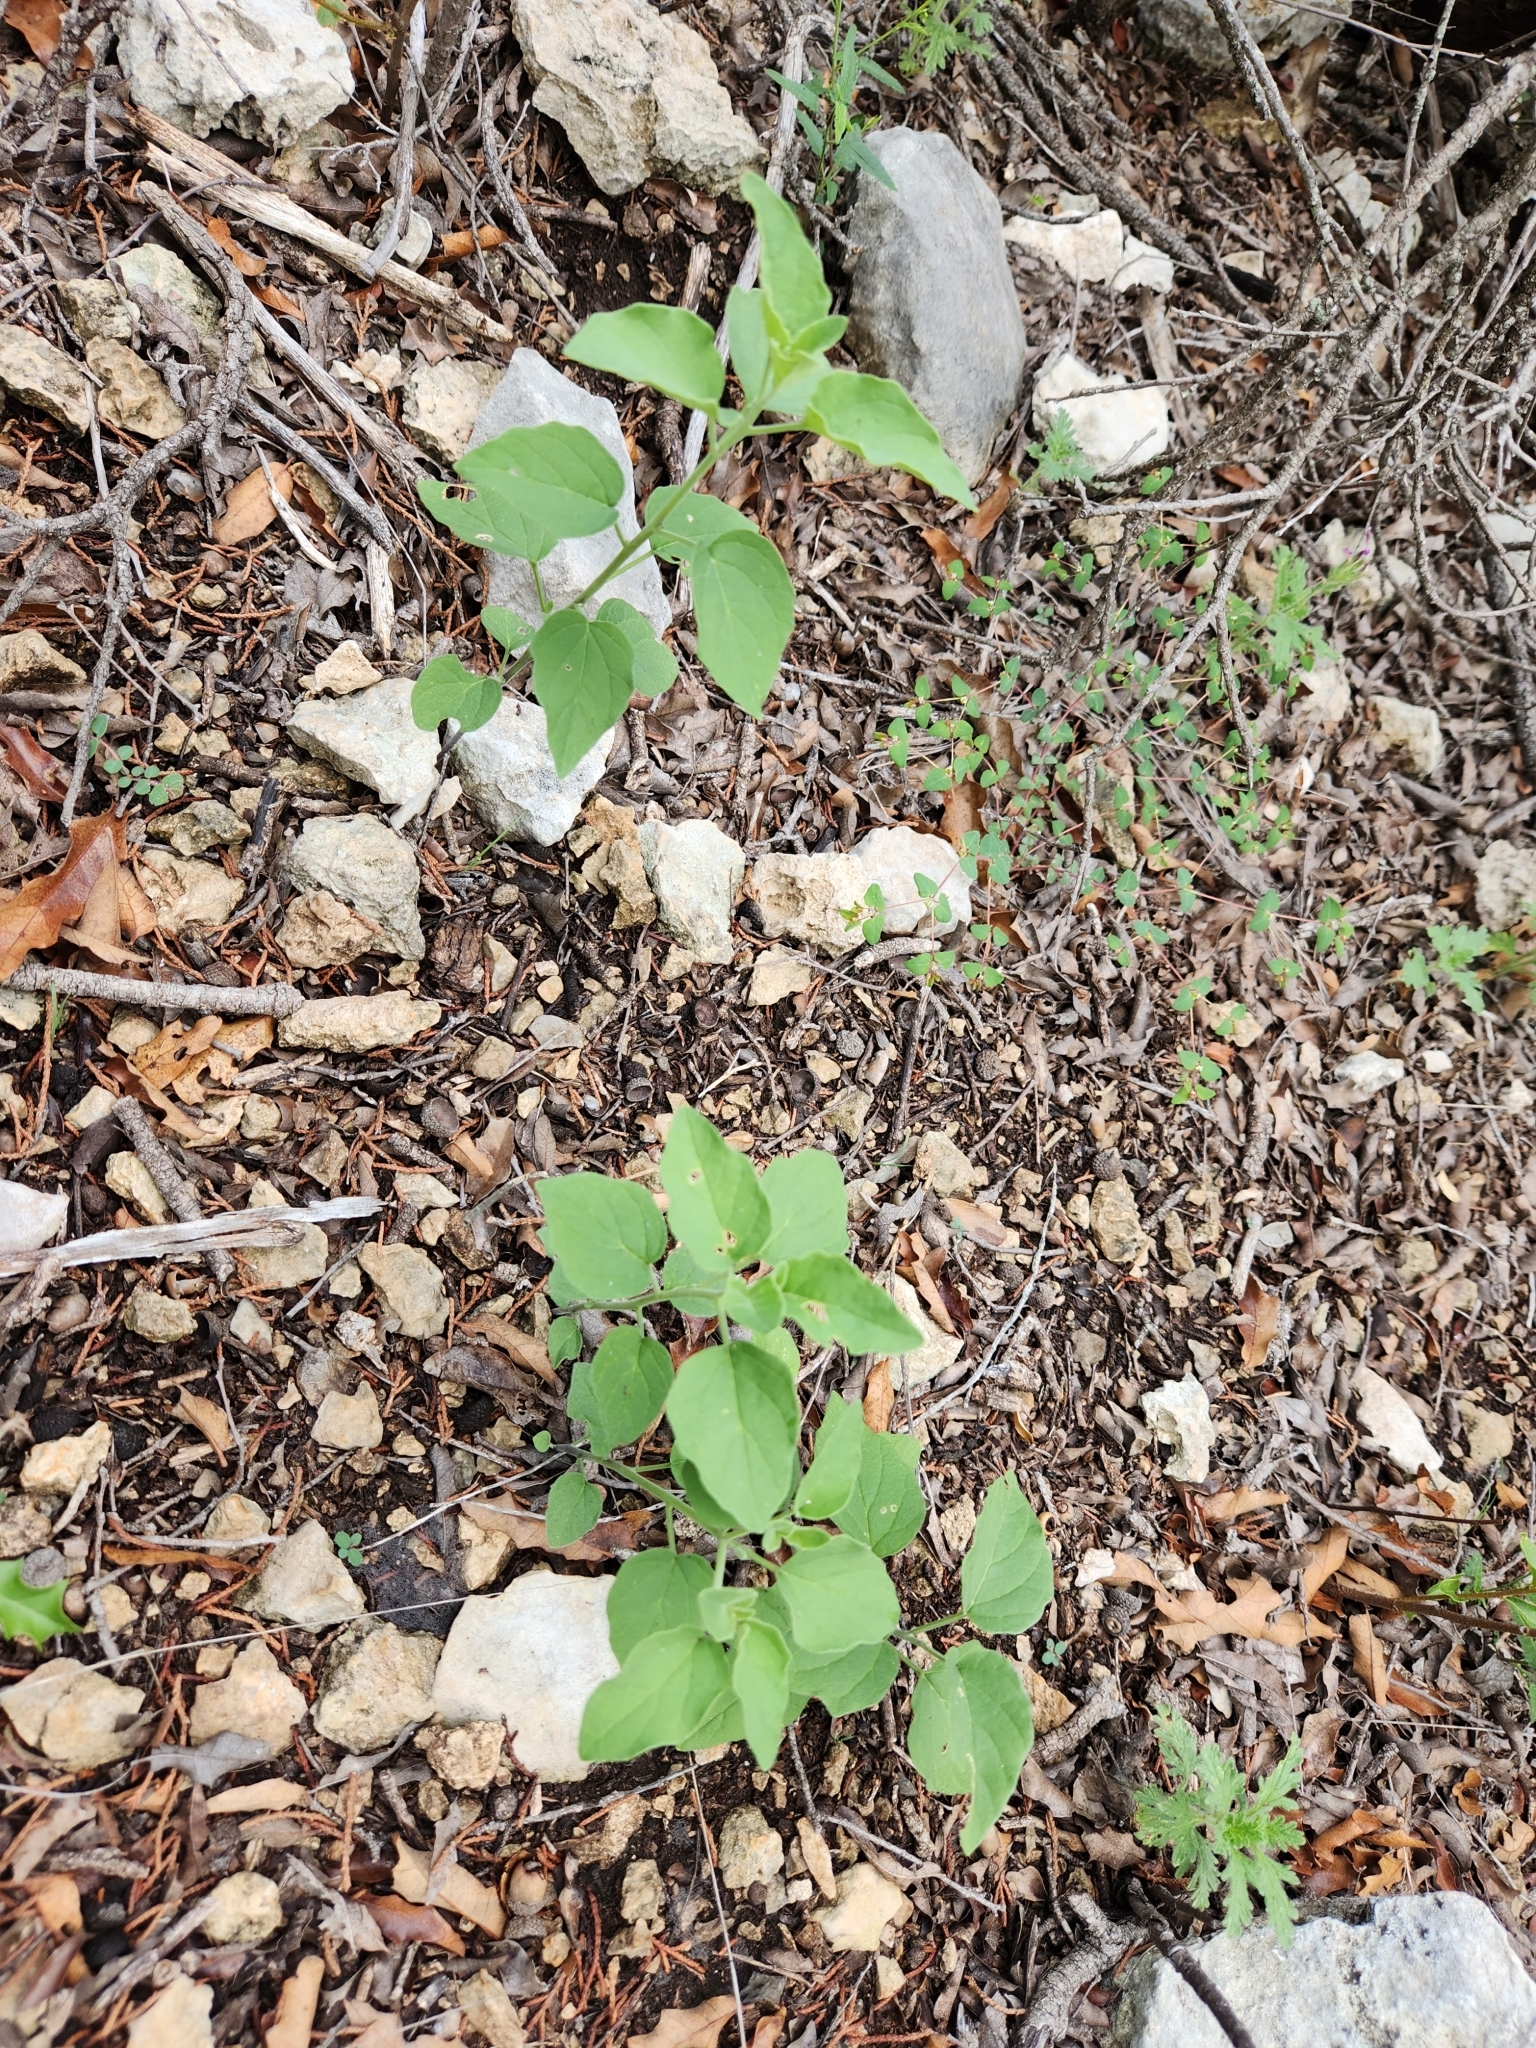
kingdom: Plantae
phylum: Tracheophyta
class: Magnoliopsida
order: Solanales
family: Solanaceae
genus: Physalis
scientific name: Physalis cinerascens
